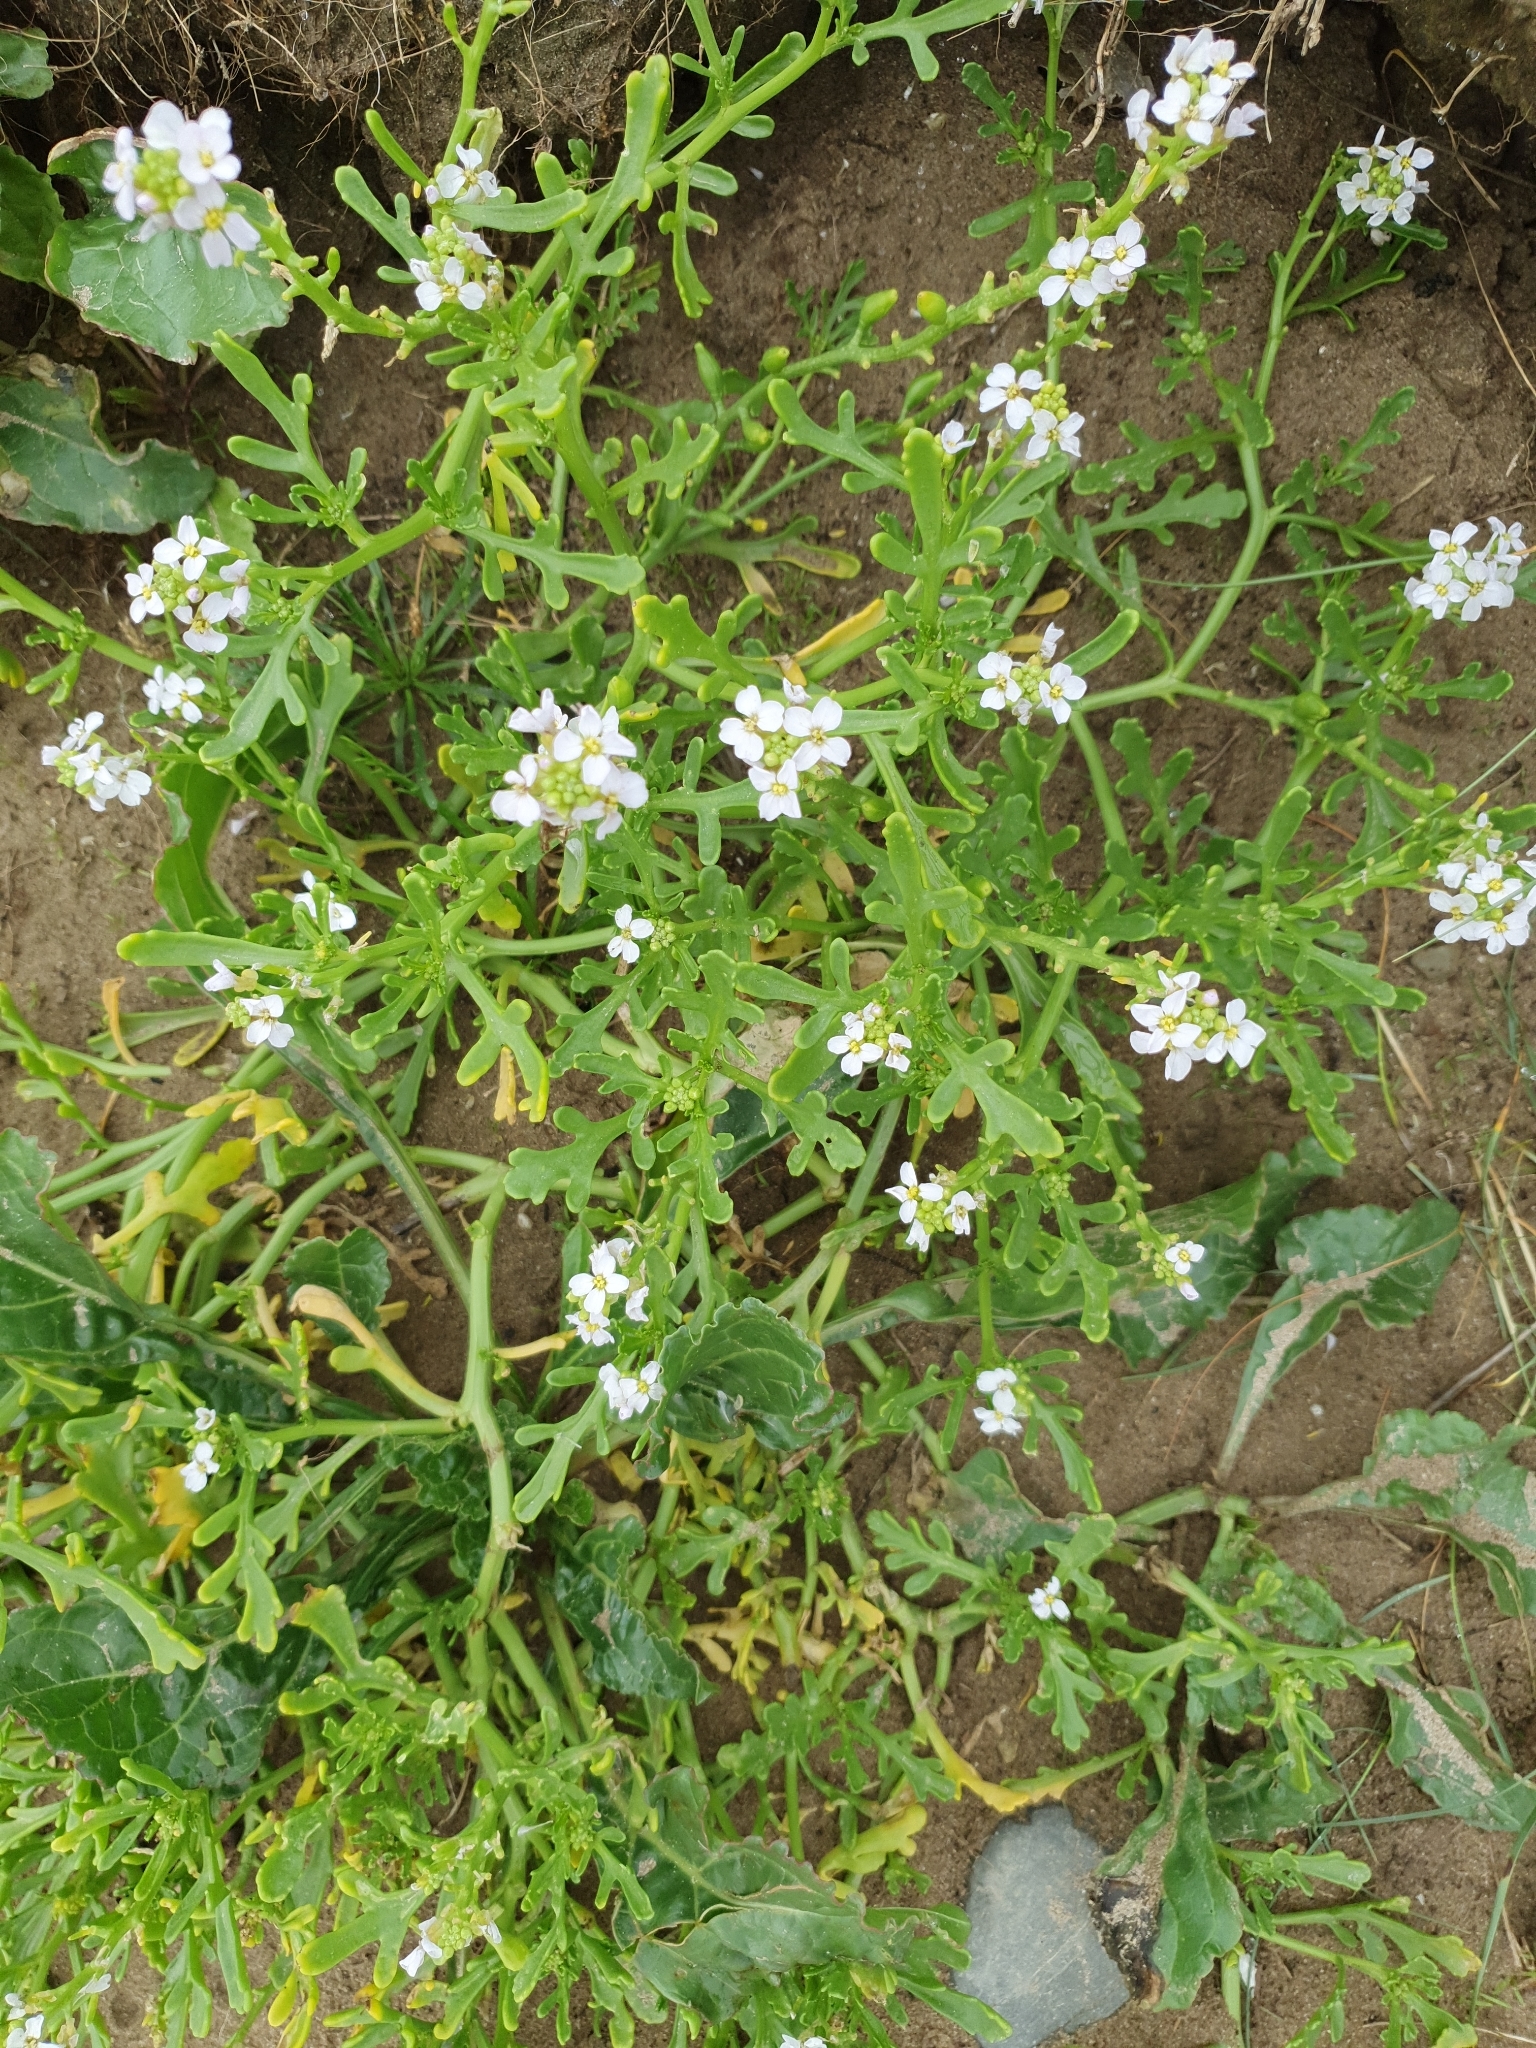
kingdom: Plantae
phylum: Tracheophyta
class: Magnoliopsida
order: Brassicales
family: Brassicaceae
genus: Cakile
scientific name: Cakile maritima
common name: Sea rocket
